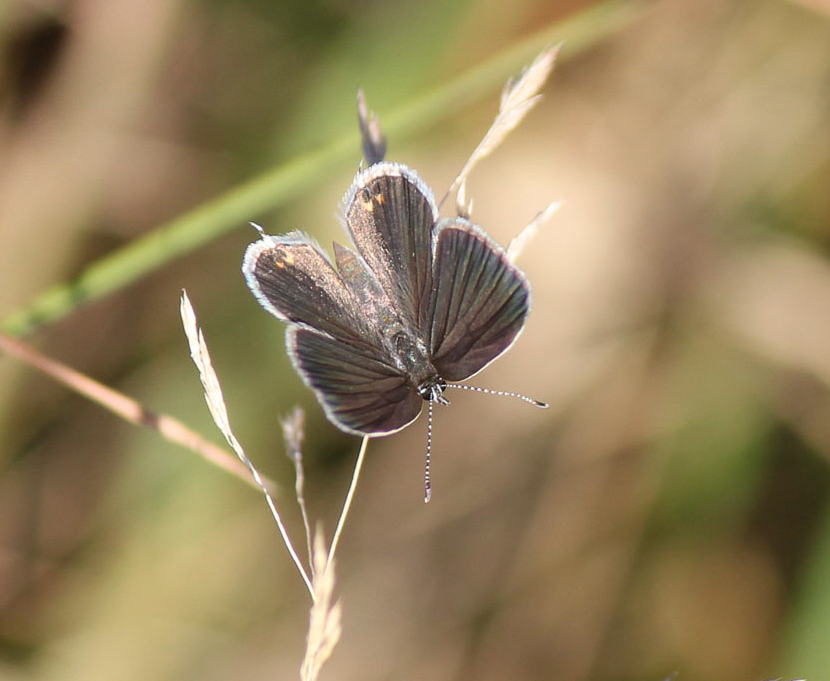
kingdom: Animalia
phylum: Arthropoda
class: Insecta
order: Lepidoptera
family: Lycaenidae
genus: Elkalyce
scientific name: Elkalyce comyntas
